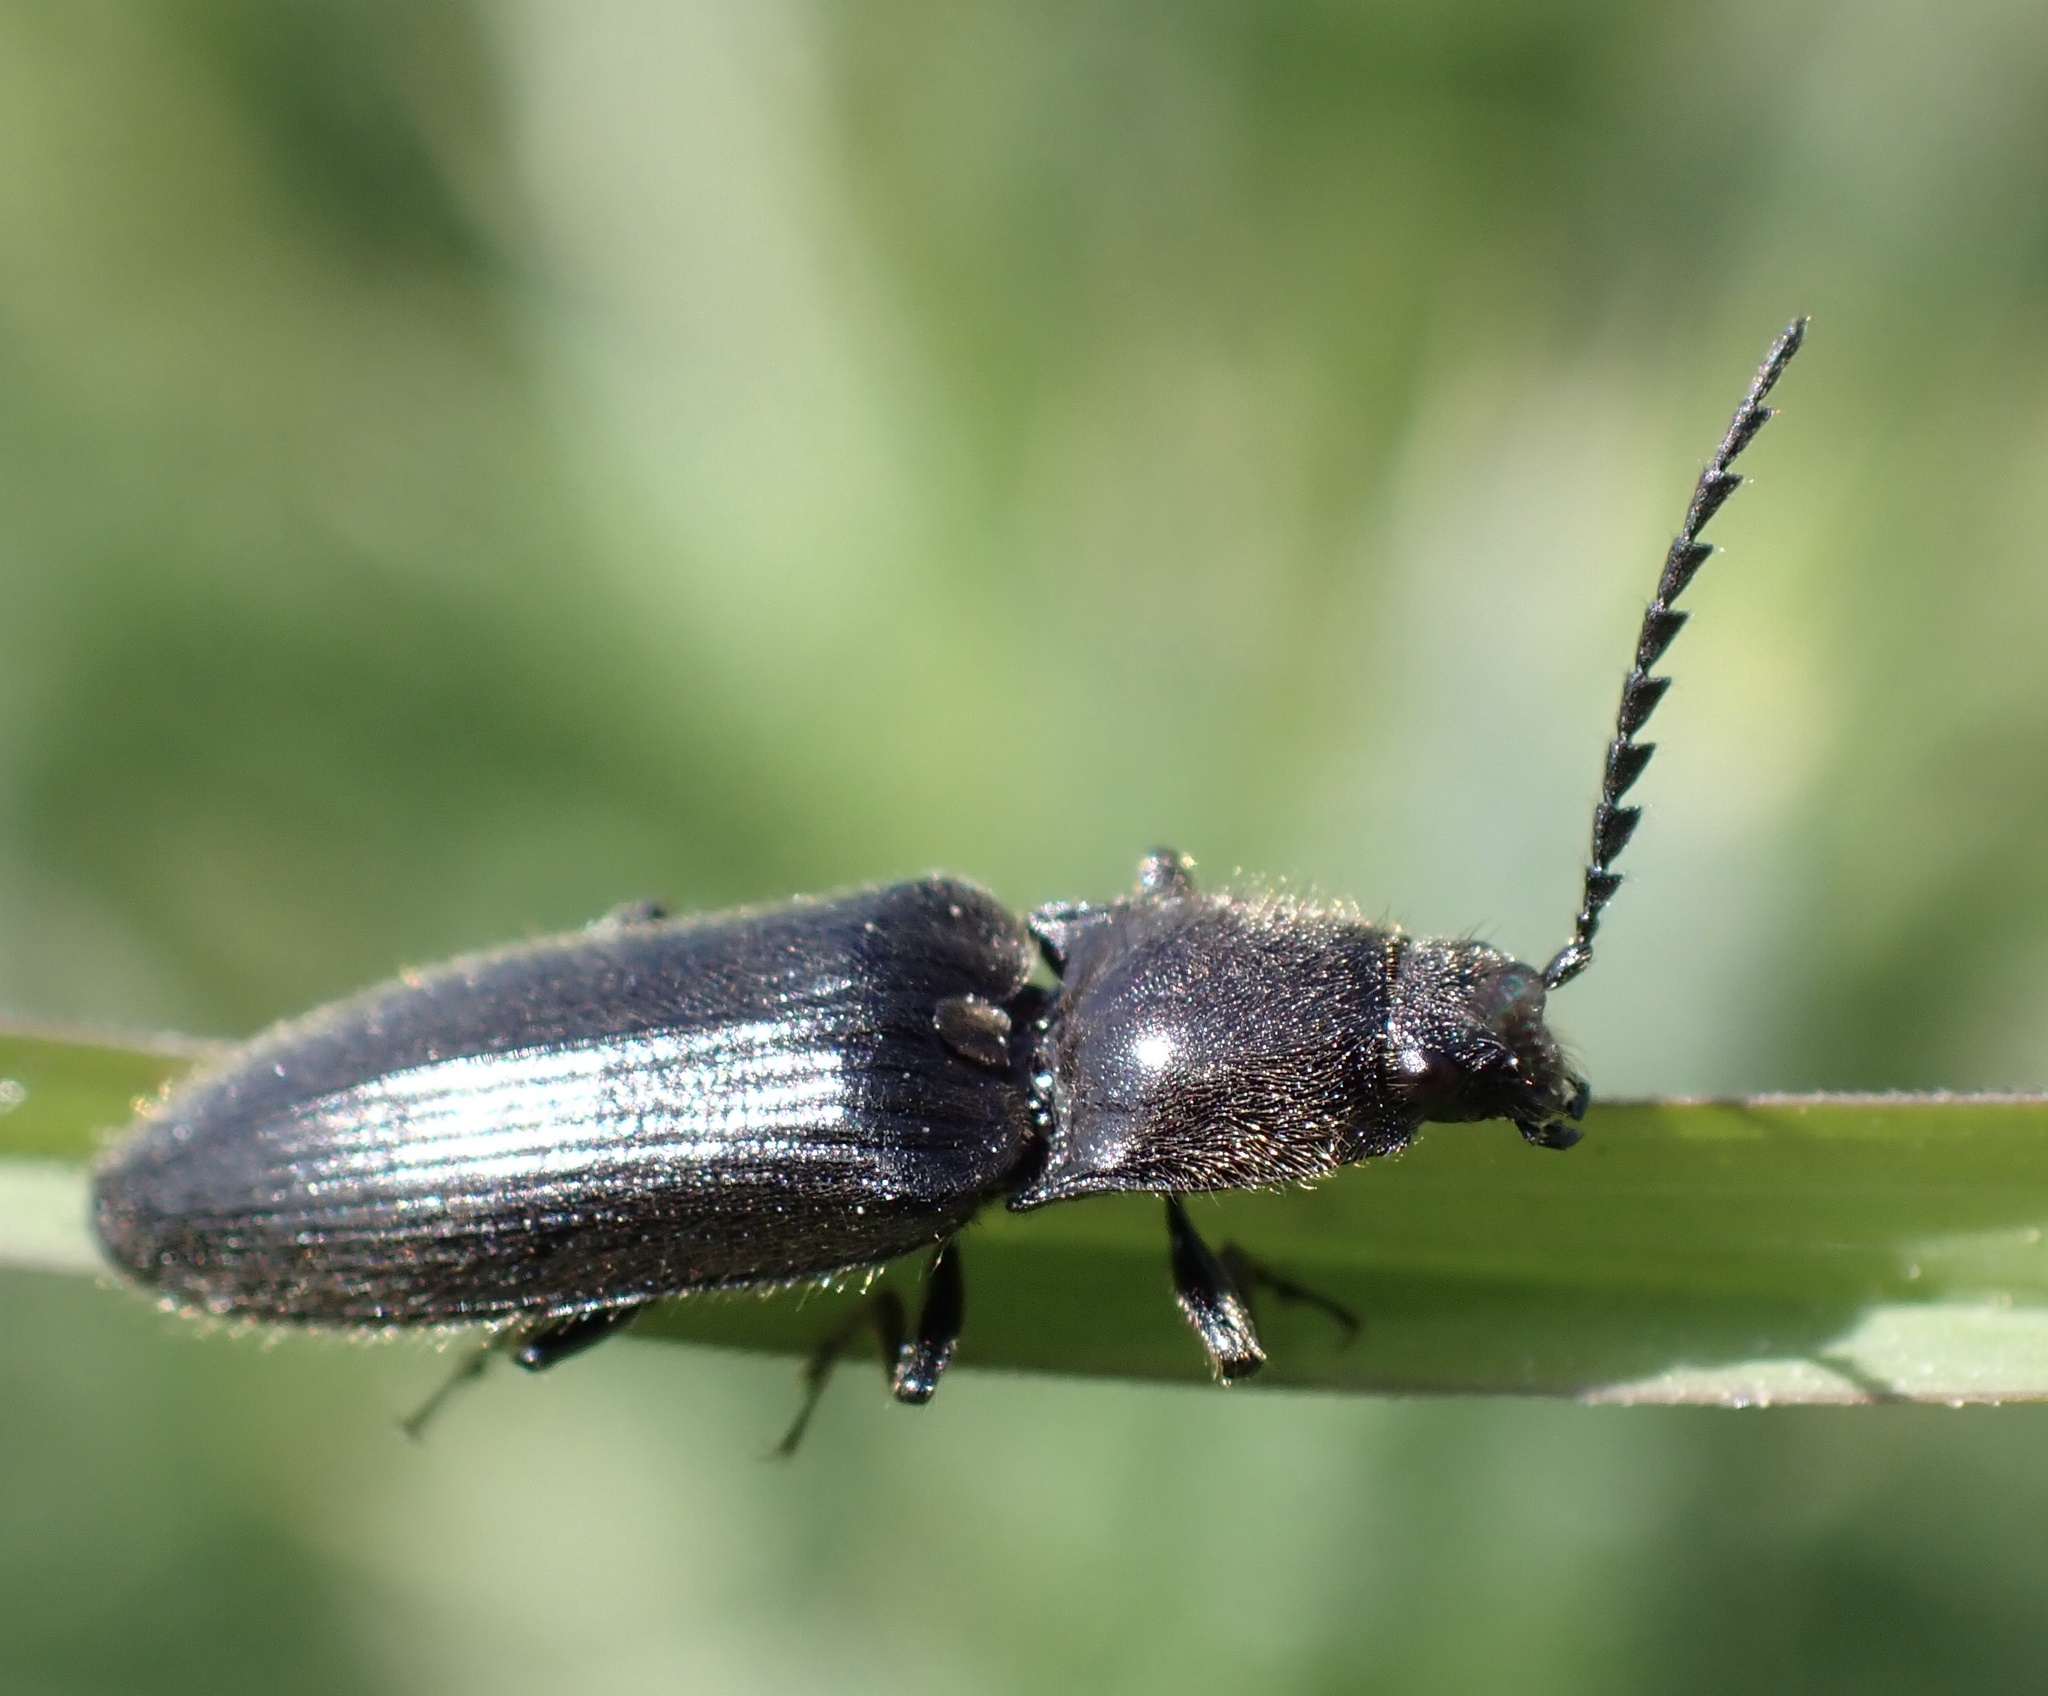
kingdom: Animalia
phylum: Arthropoda
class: Insecta
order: Coleoptera
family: Elateridae
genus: Hemicrepidius
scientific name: Hemicrepidius niger
